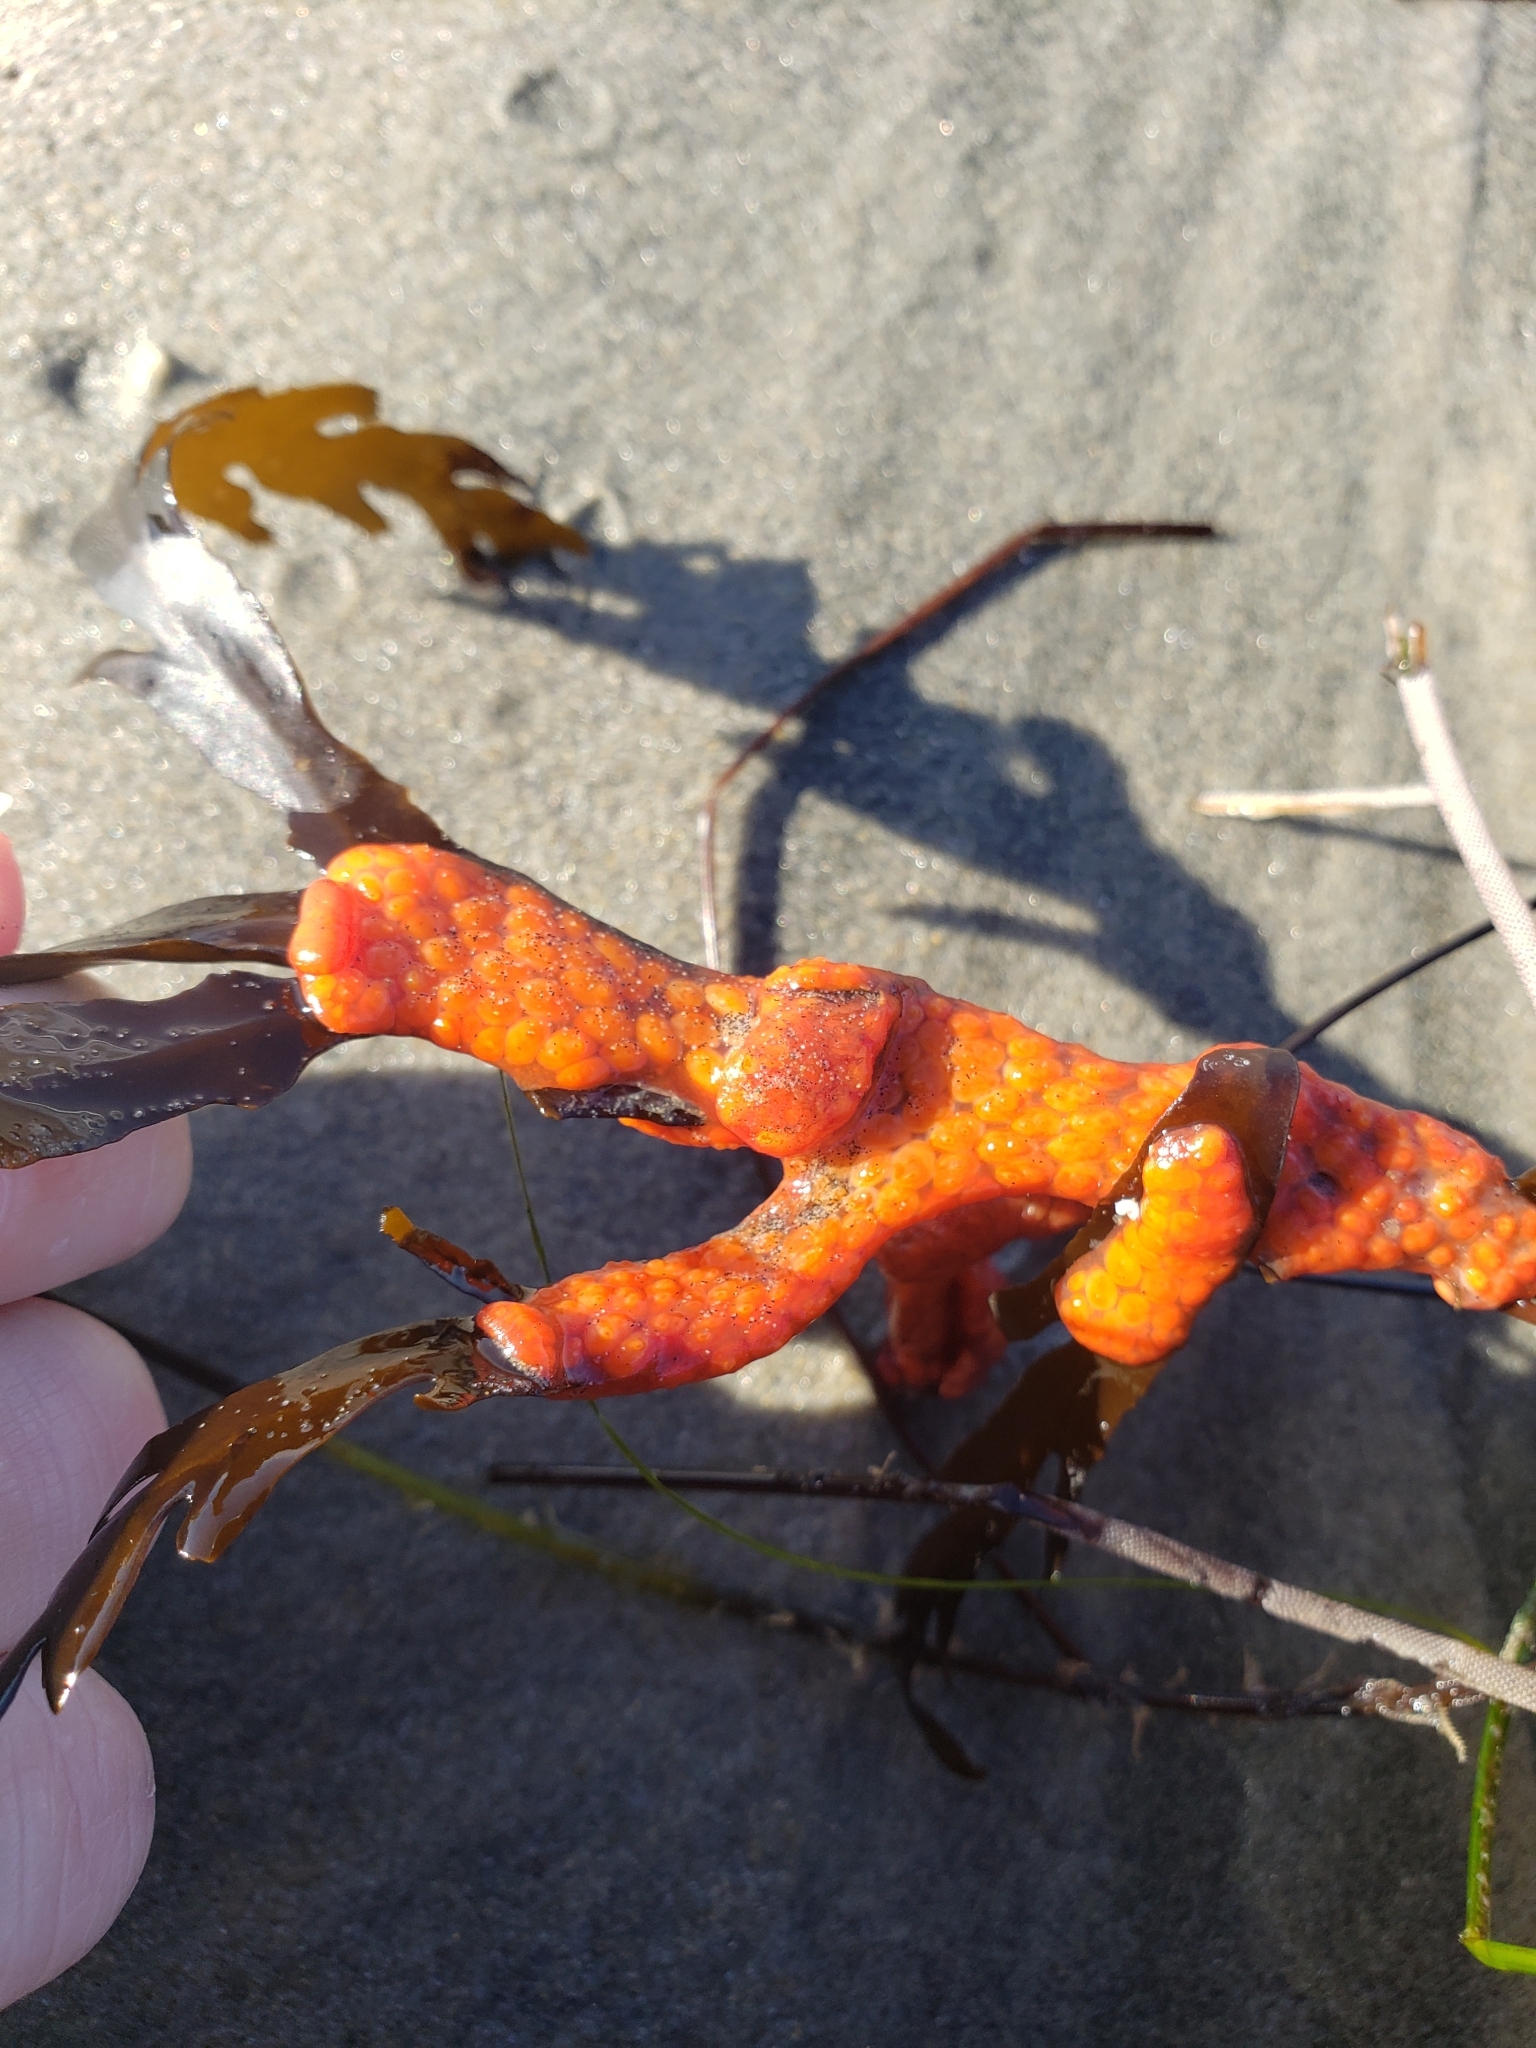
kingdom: Animalia
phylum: Chordata
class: Ascidiacea
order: Stolidobranchia
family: Styelidae
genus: Metandrocarpa
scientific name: Metandrocarpa dura
